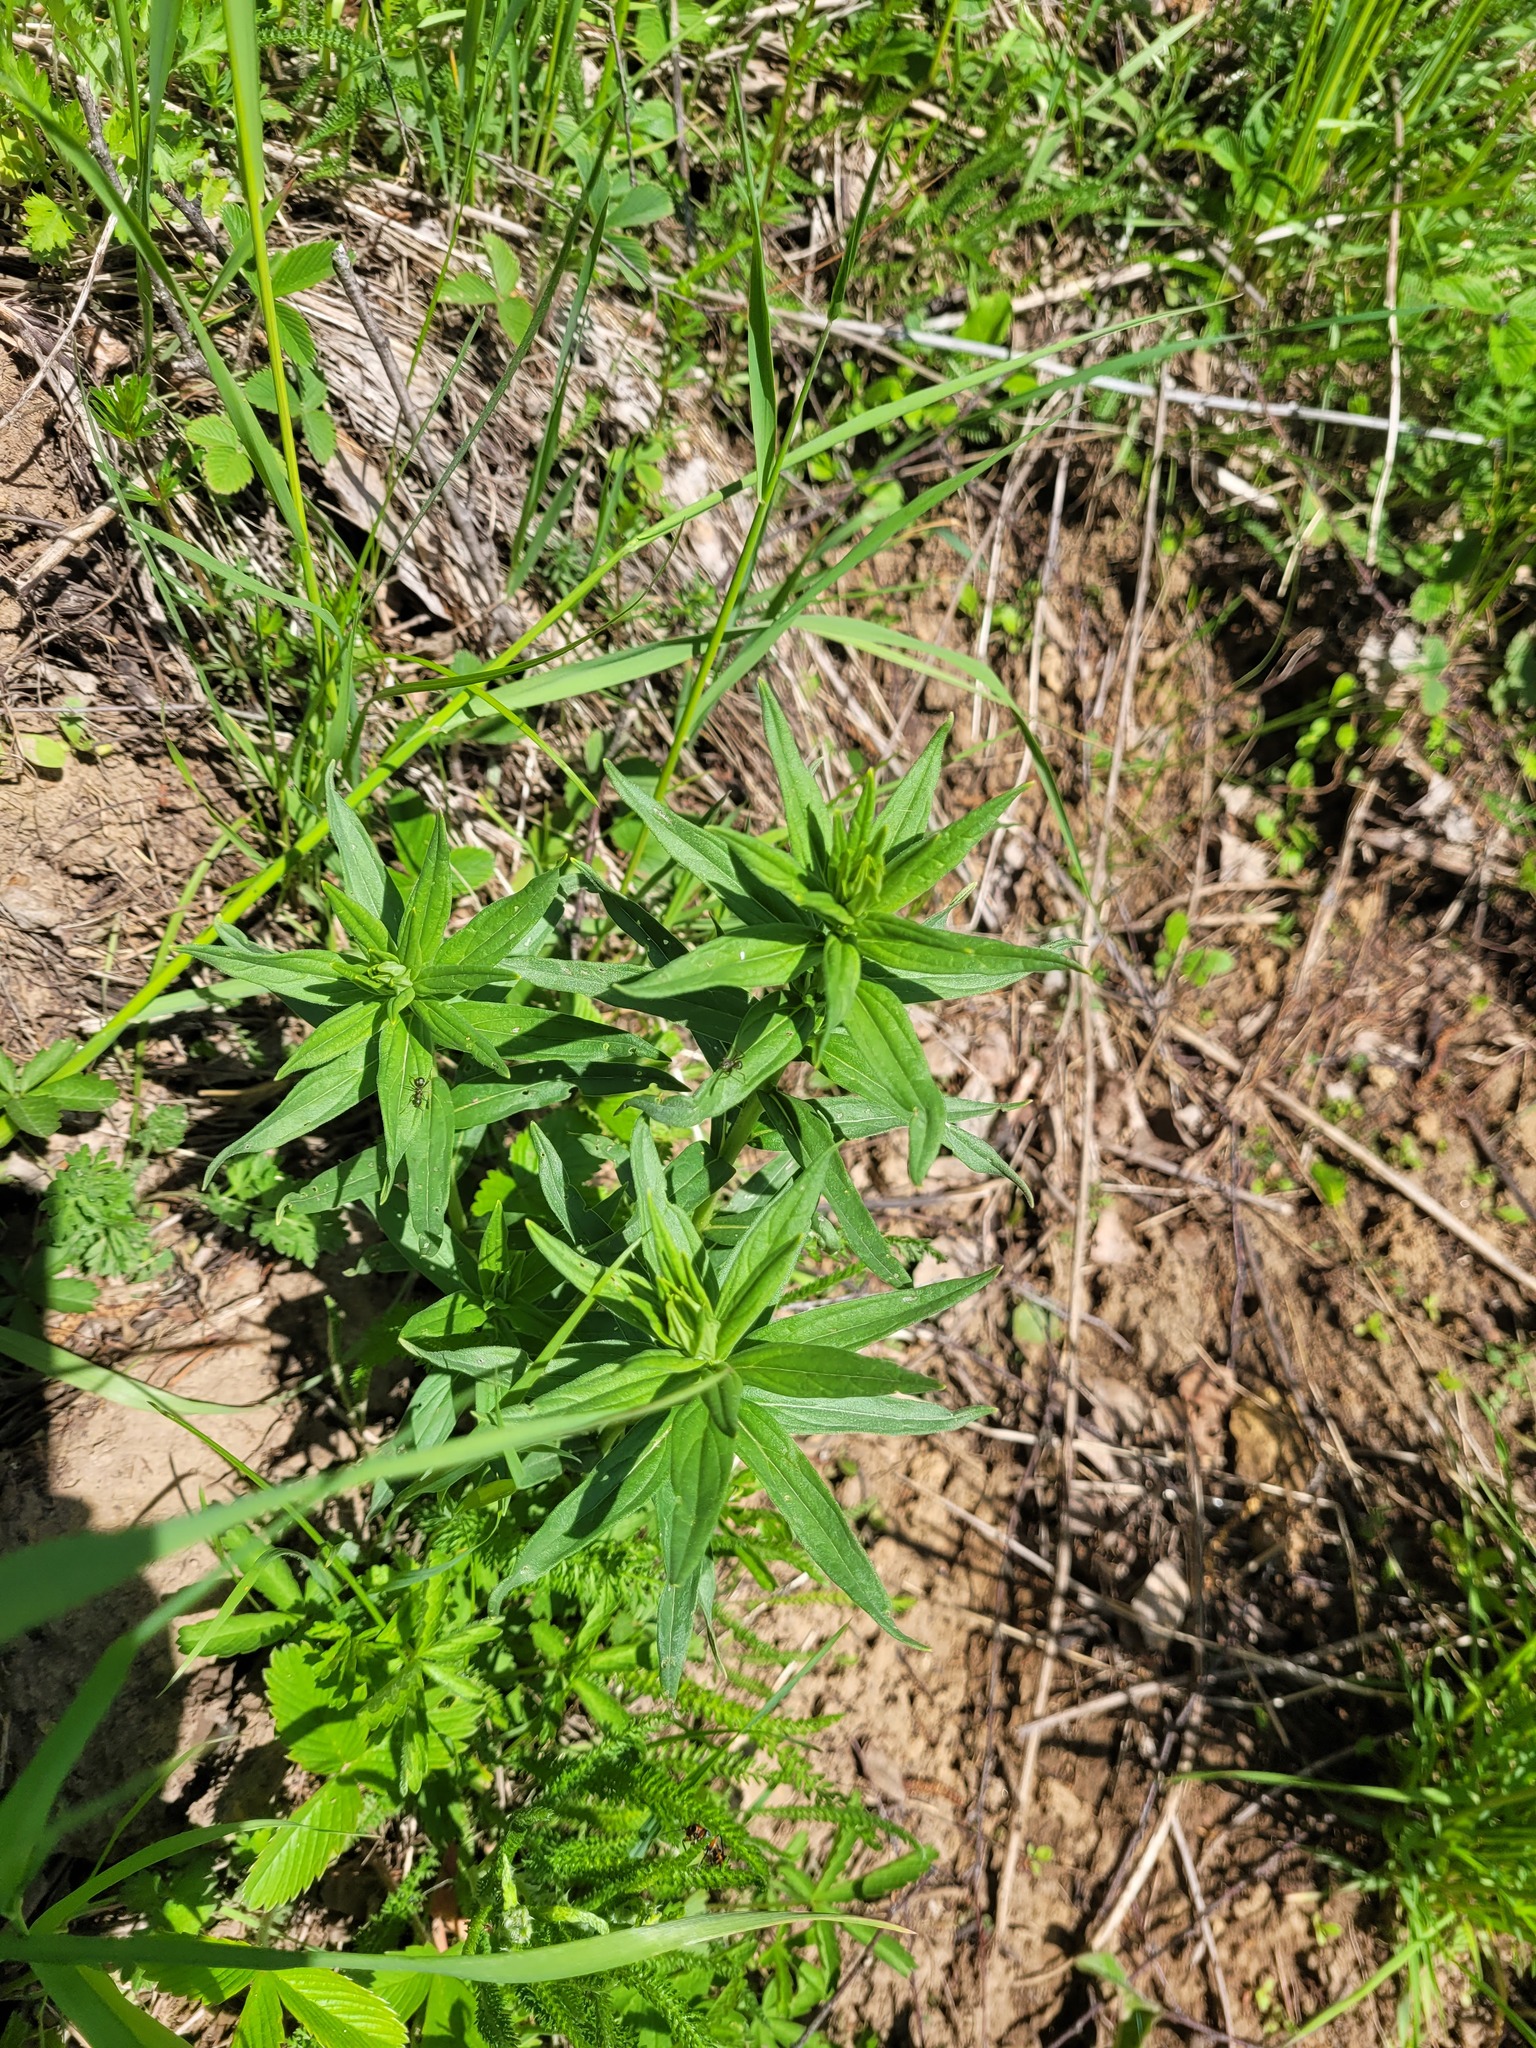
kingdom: Plantae
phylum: Tracheophyta
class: Magnoliopsida
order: Boraginales
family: Boraginaceae
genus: Lithospermum
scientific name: Lithospermum officinale
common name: Common gromwell
